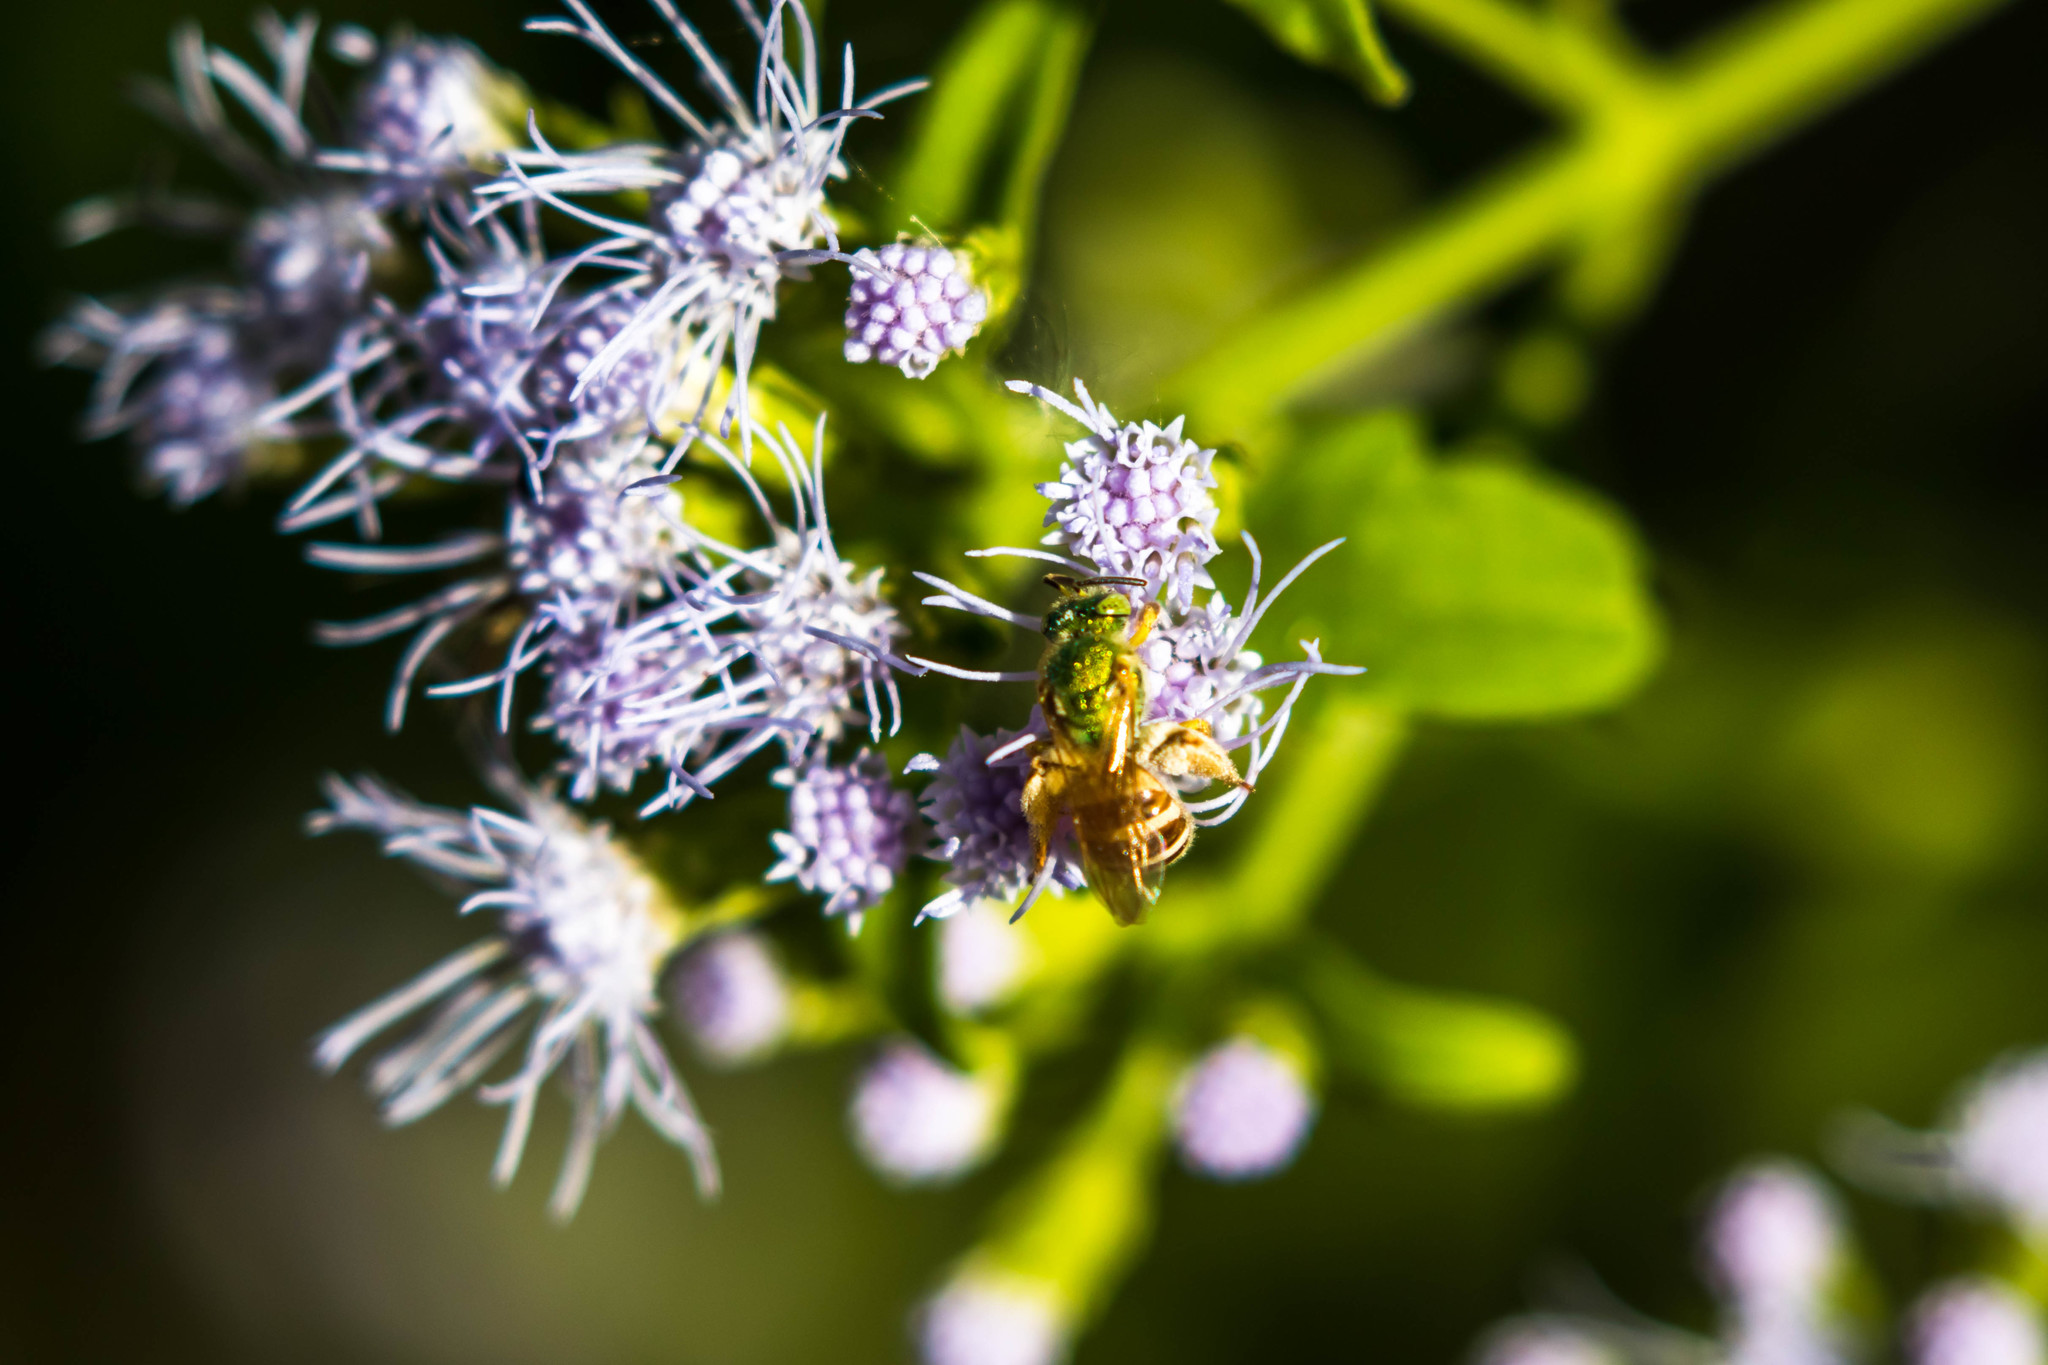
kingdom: Animalia
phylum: Arthropoda
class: Insecta
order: Hymenoptera
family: Halictidae
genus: Agapostemon
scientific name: Agapostemon melliventris
